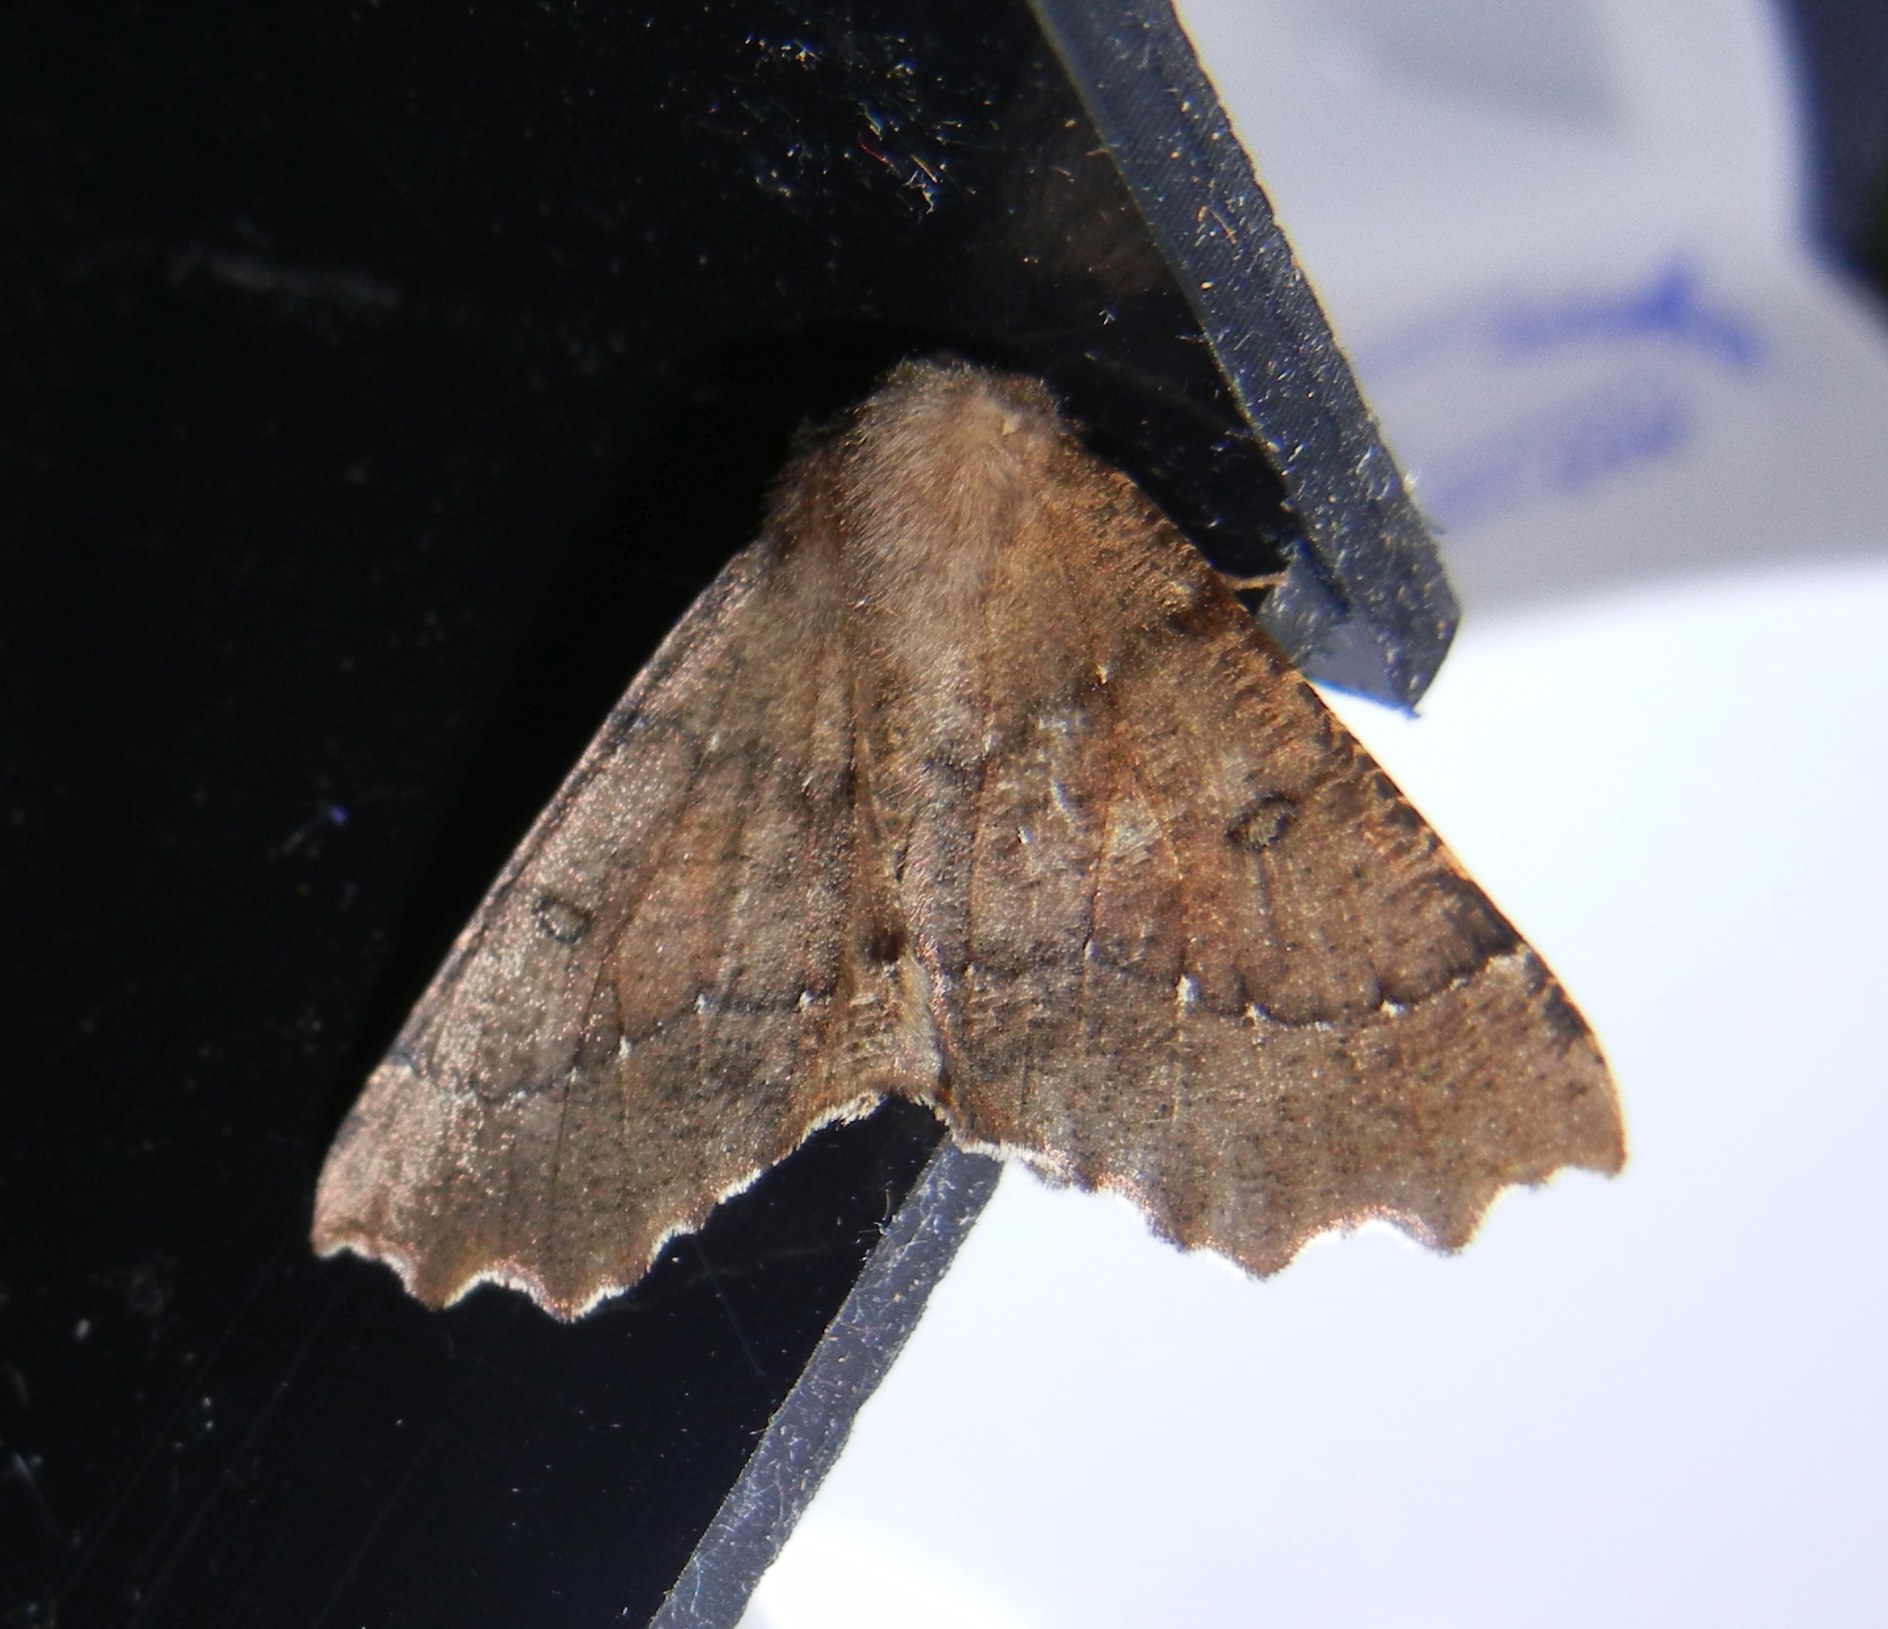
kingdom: Animalia
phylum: Arthropoda
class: Insecta
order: Lepidoptera
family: Geometridae
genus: Odontopera
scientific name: Odontopera bidentata
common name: Scalloped hazel
